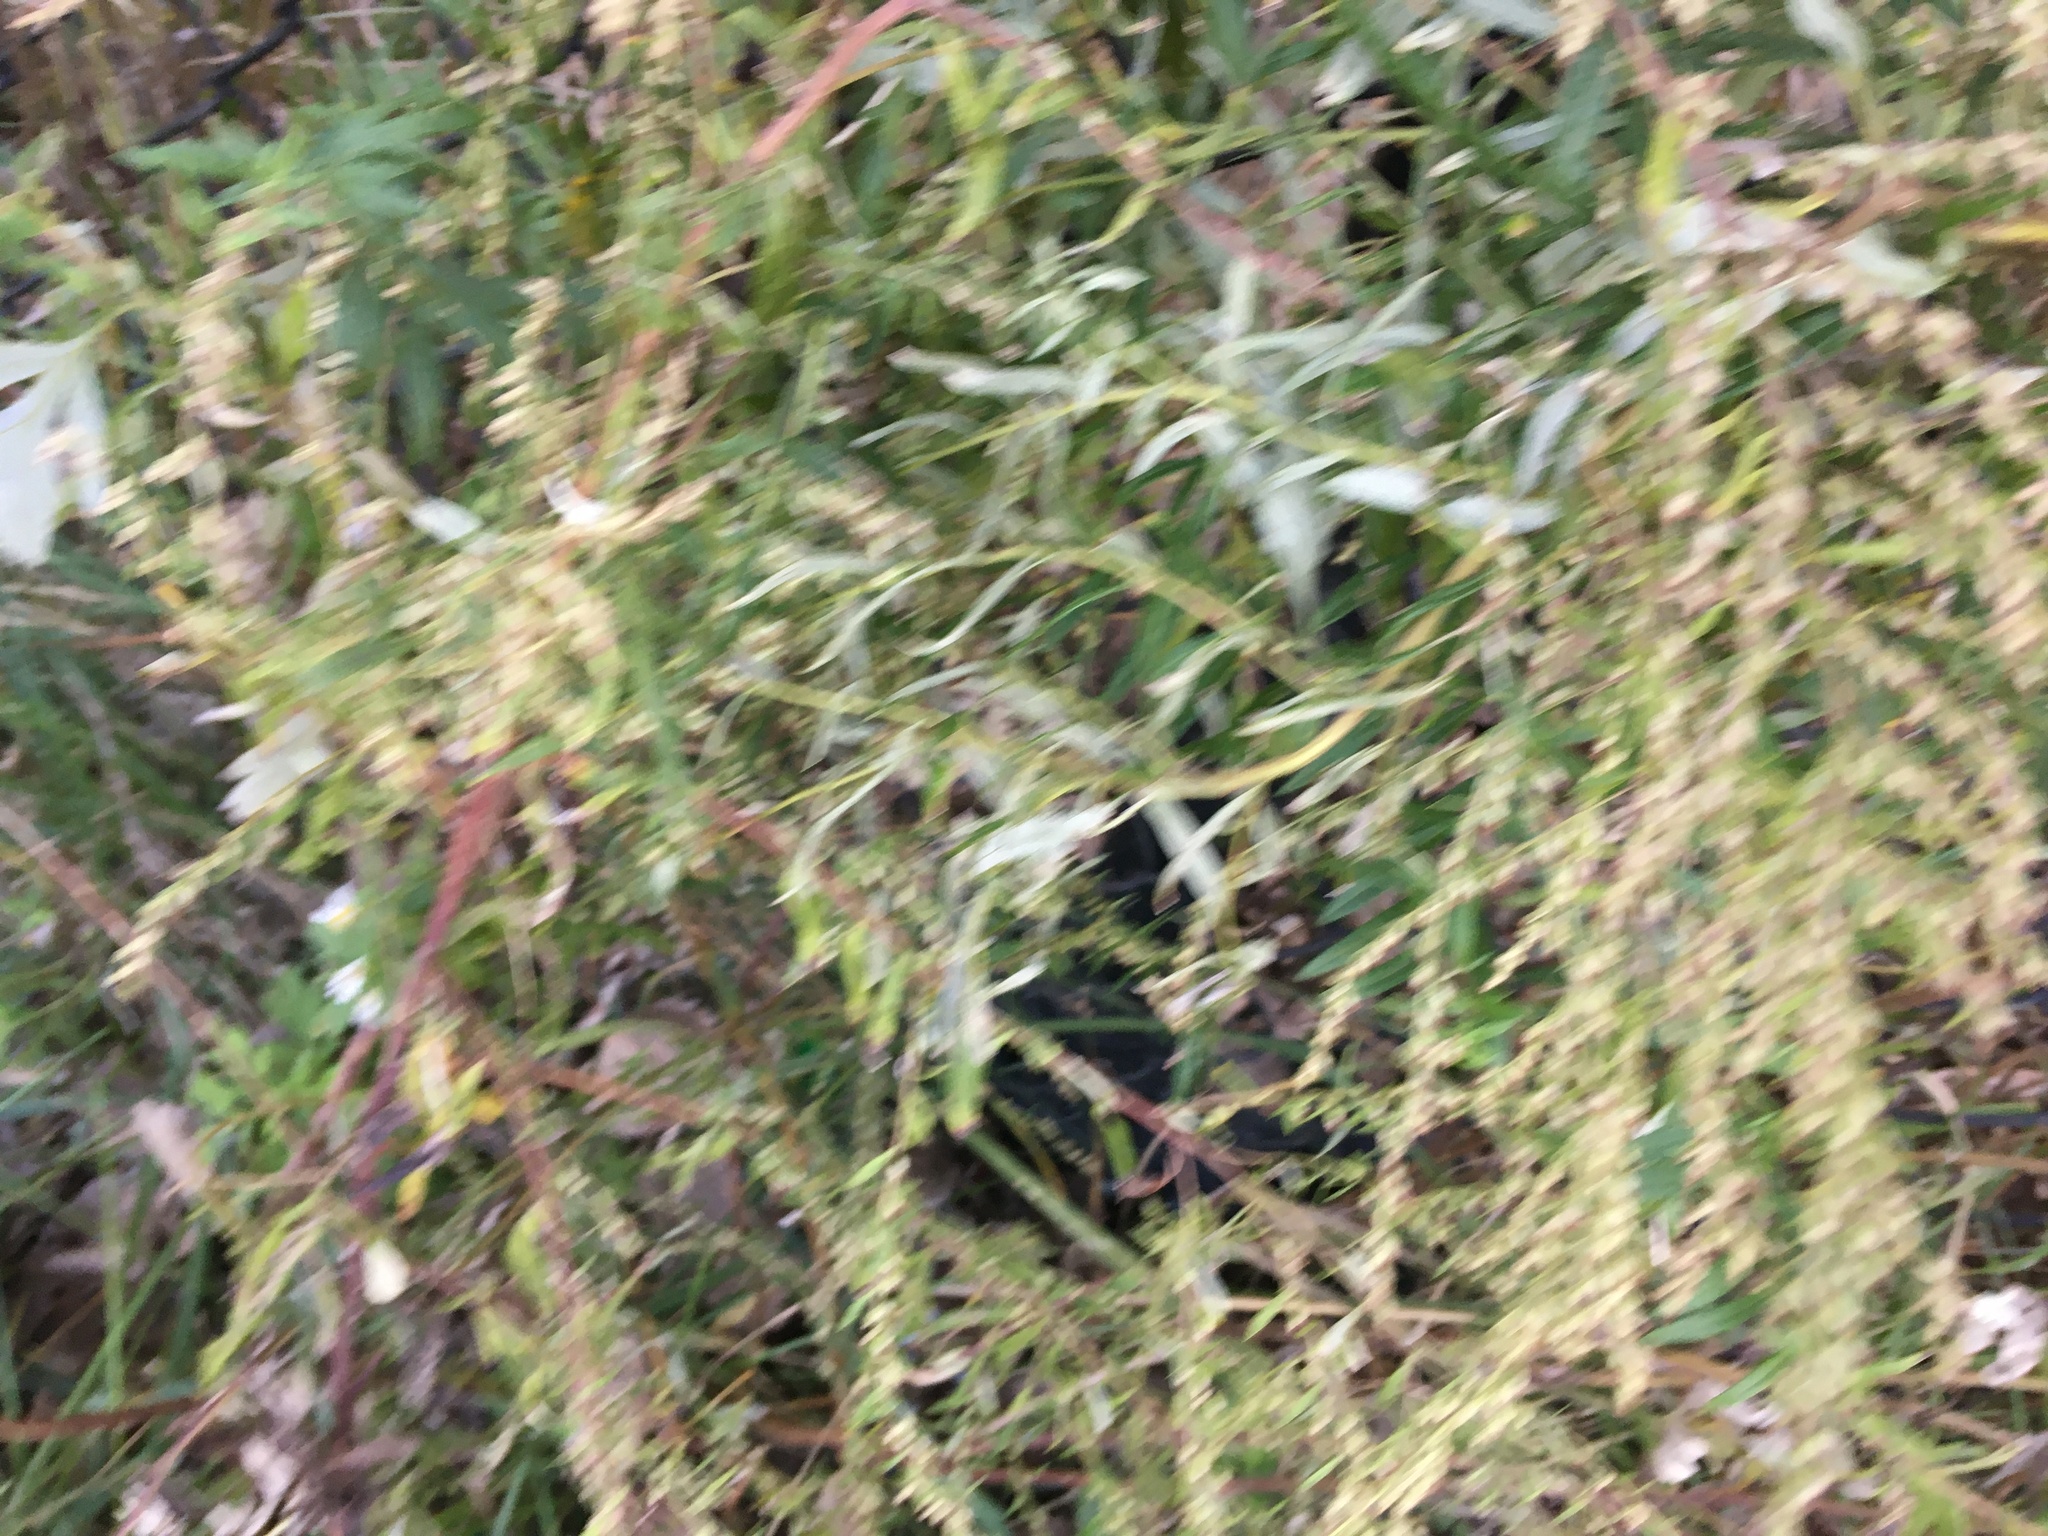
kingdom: Plantae
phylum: Tracheophyta
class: Magnoliopsida
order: Asterales
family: Asteraceae
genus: Artemisia
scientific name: Artemisia vulgaris
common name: Mugwort
